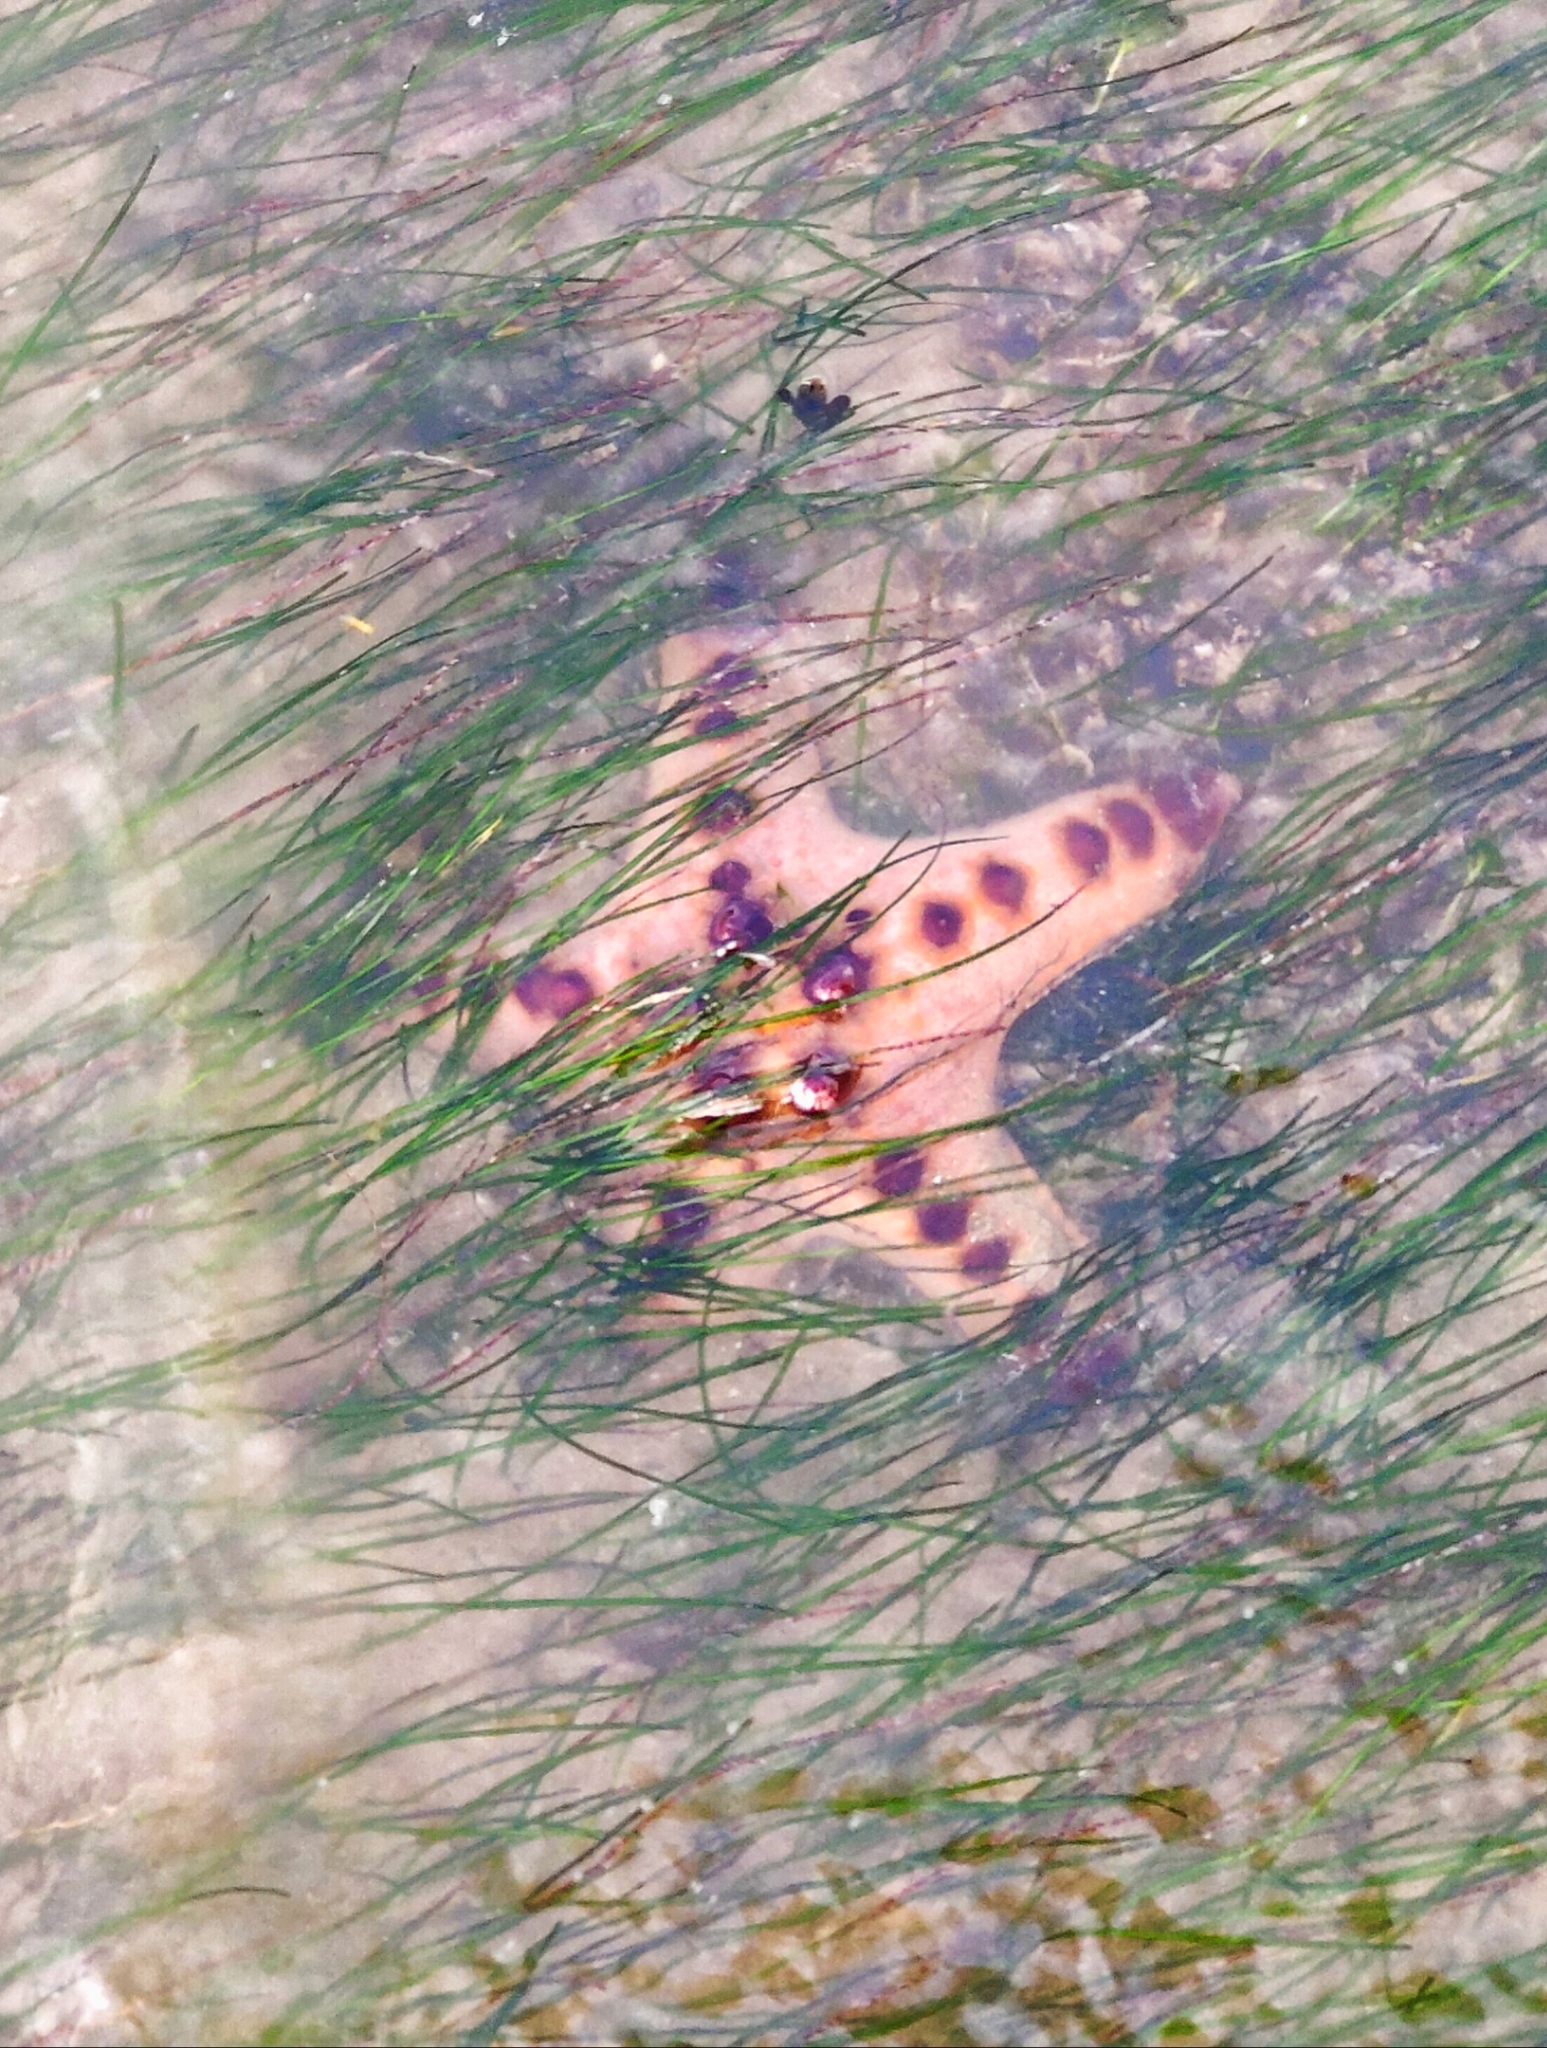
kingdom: Animalia
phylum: Echinodermata
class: Asteroidea
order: Valvatida
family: Oreasteridae
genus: Protoreaster
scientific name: Protoreaster nodosus
